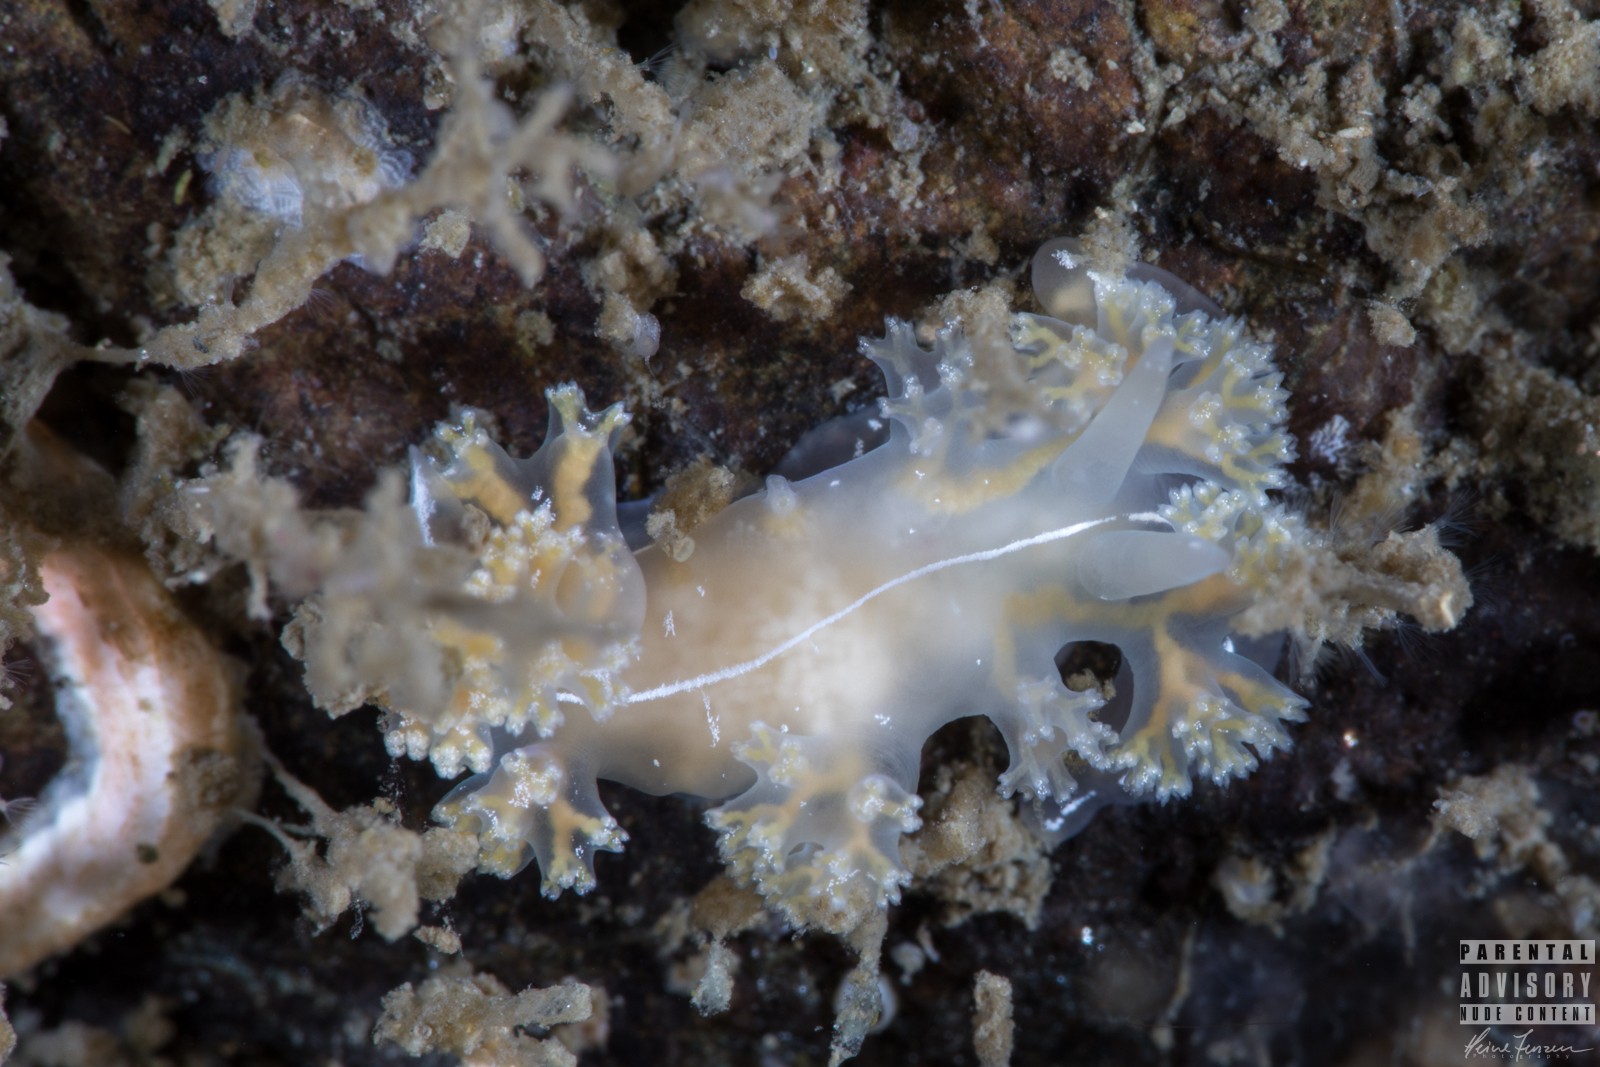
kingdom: Animalia
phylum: Mollusca
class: Gastropoda
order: Nudibranchia
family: Heroidae
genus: Hero
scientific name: Hero formosa
